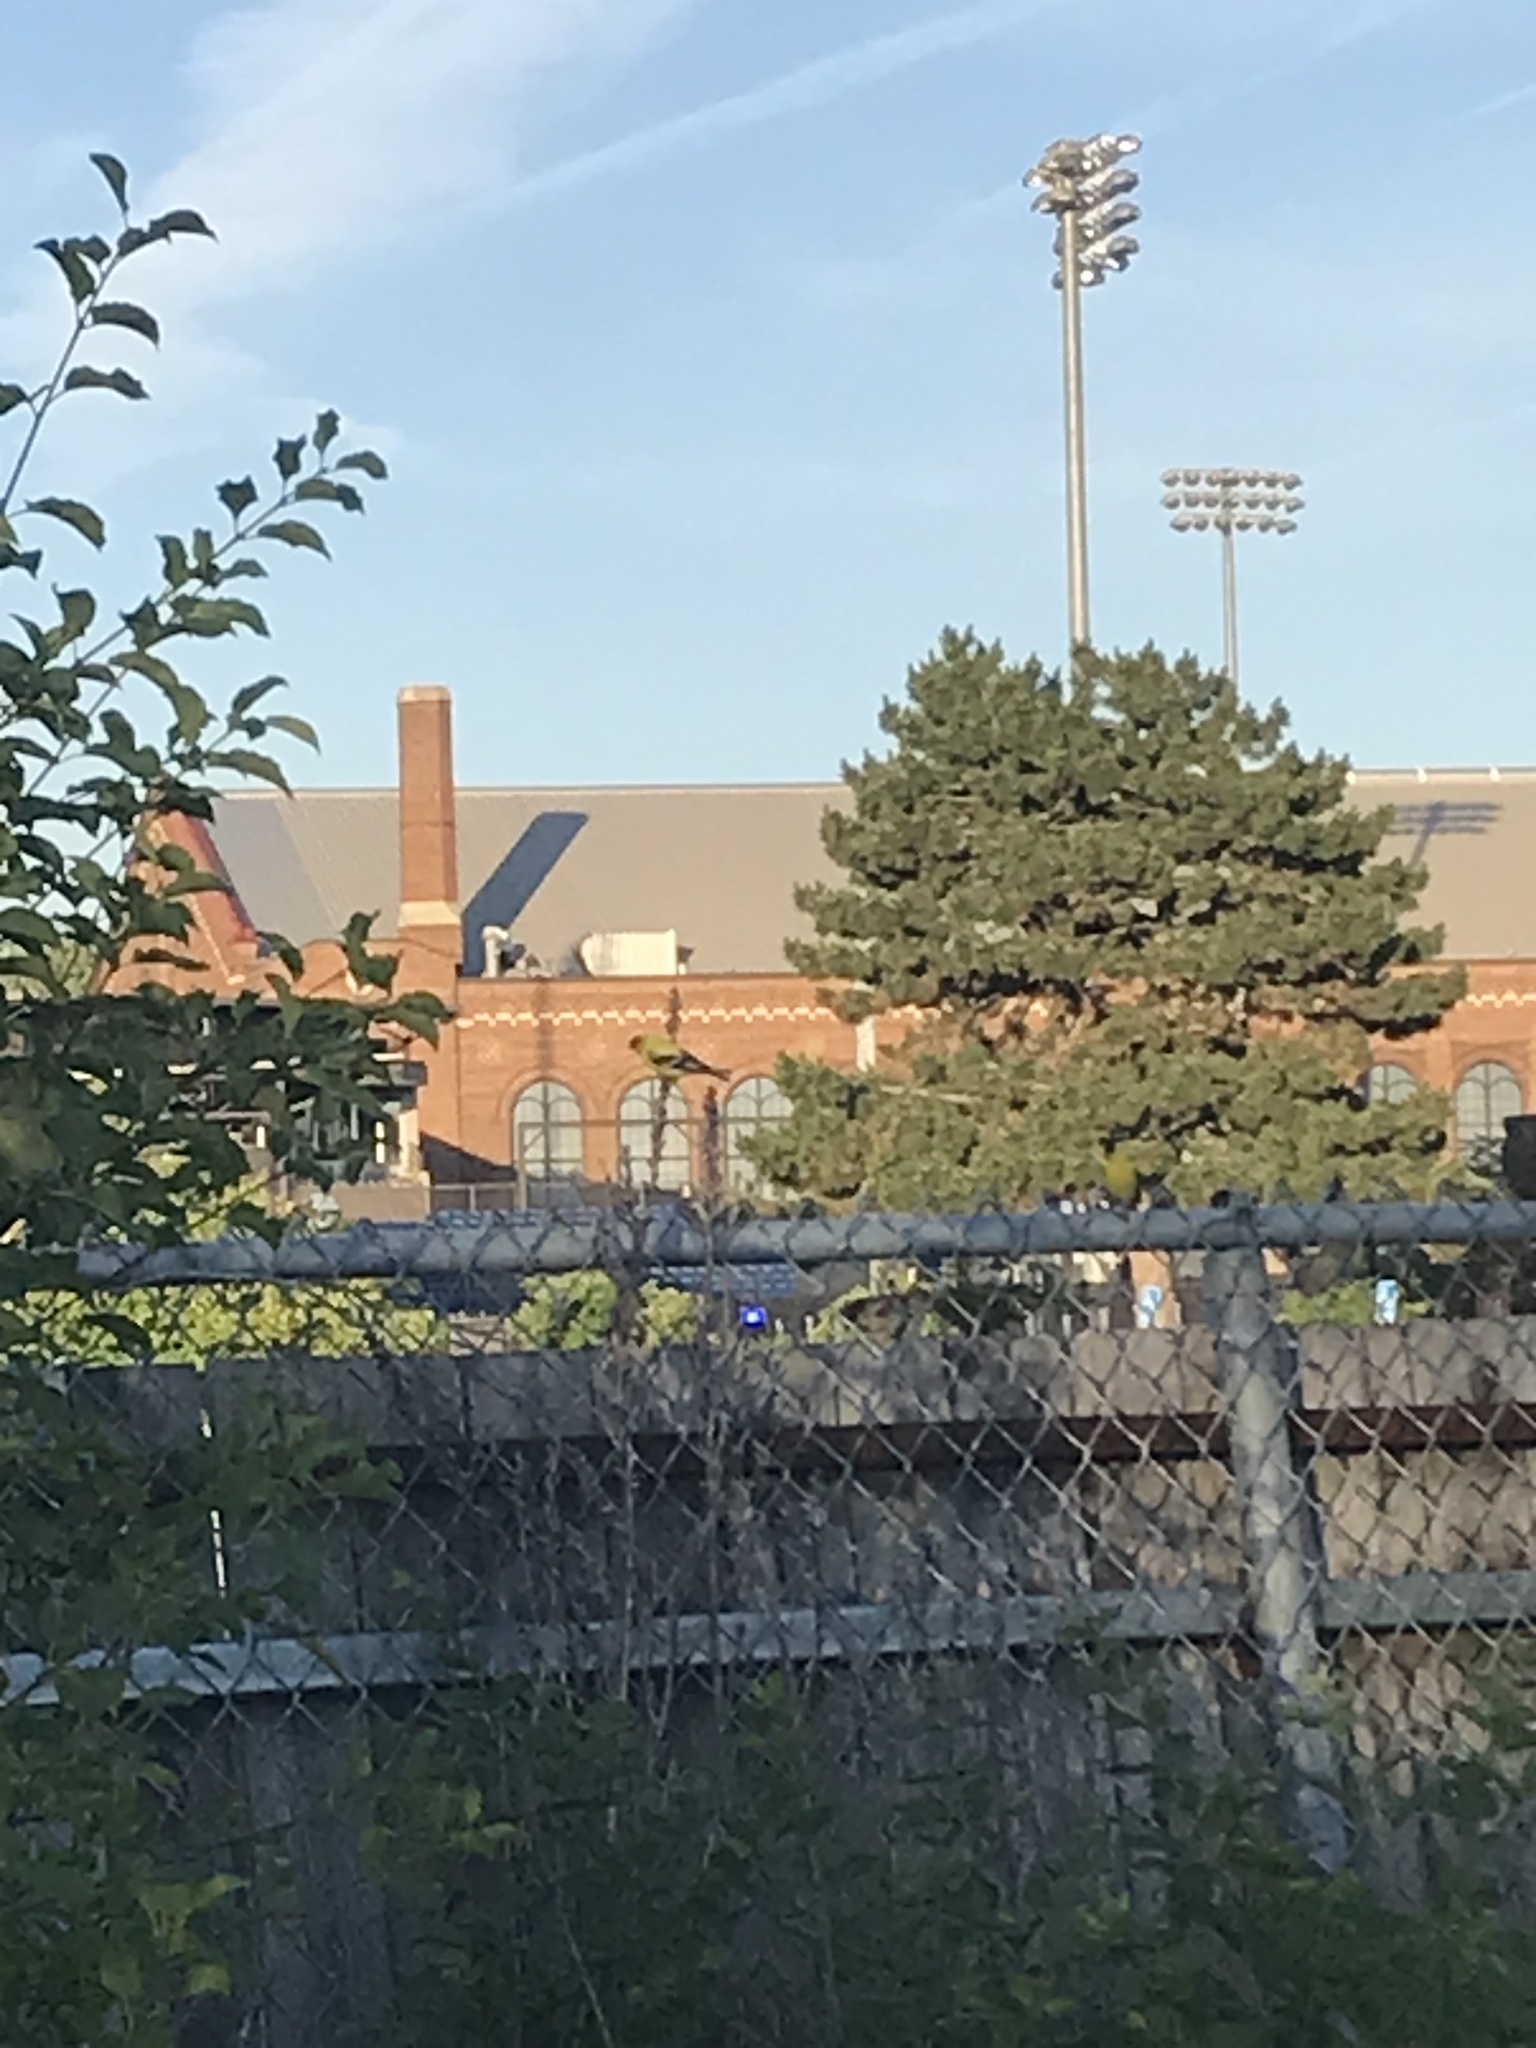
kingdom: Animalia
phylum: Chordata
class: Aves
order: Passeriformes
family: Fringillidae
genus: Spinus
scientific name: Spinus tristis
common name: American goldfinch
